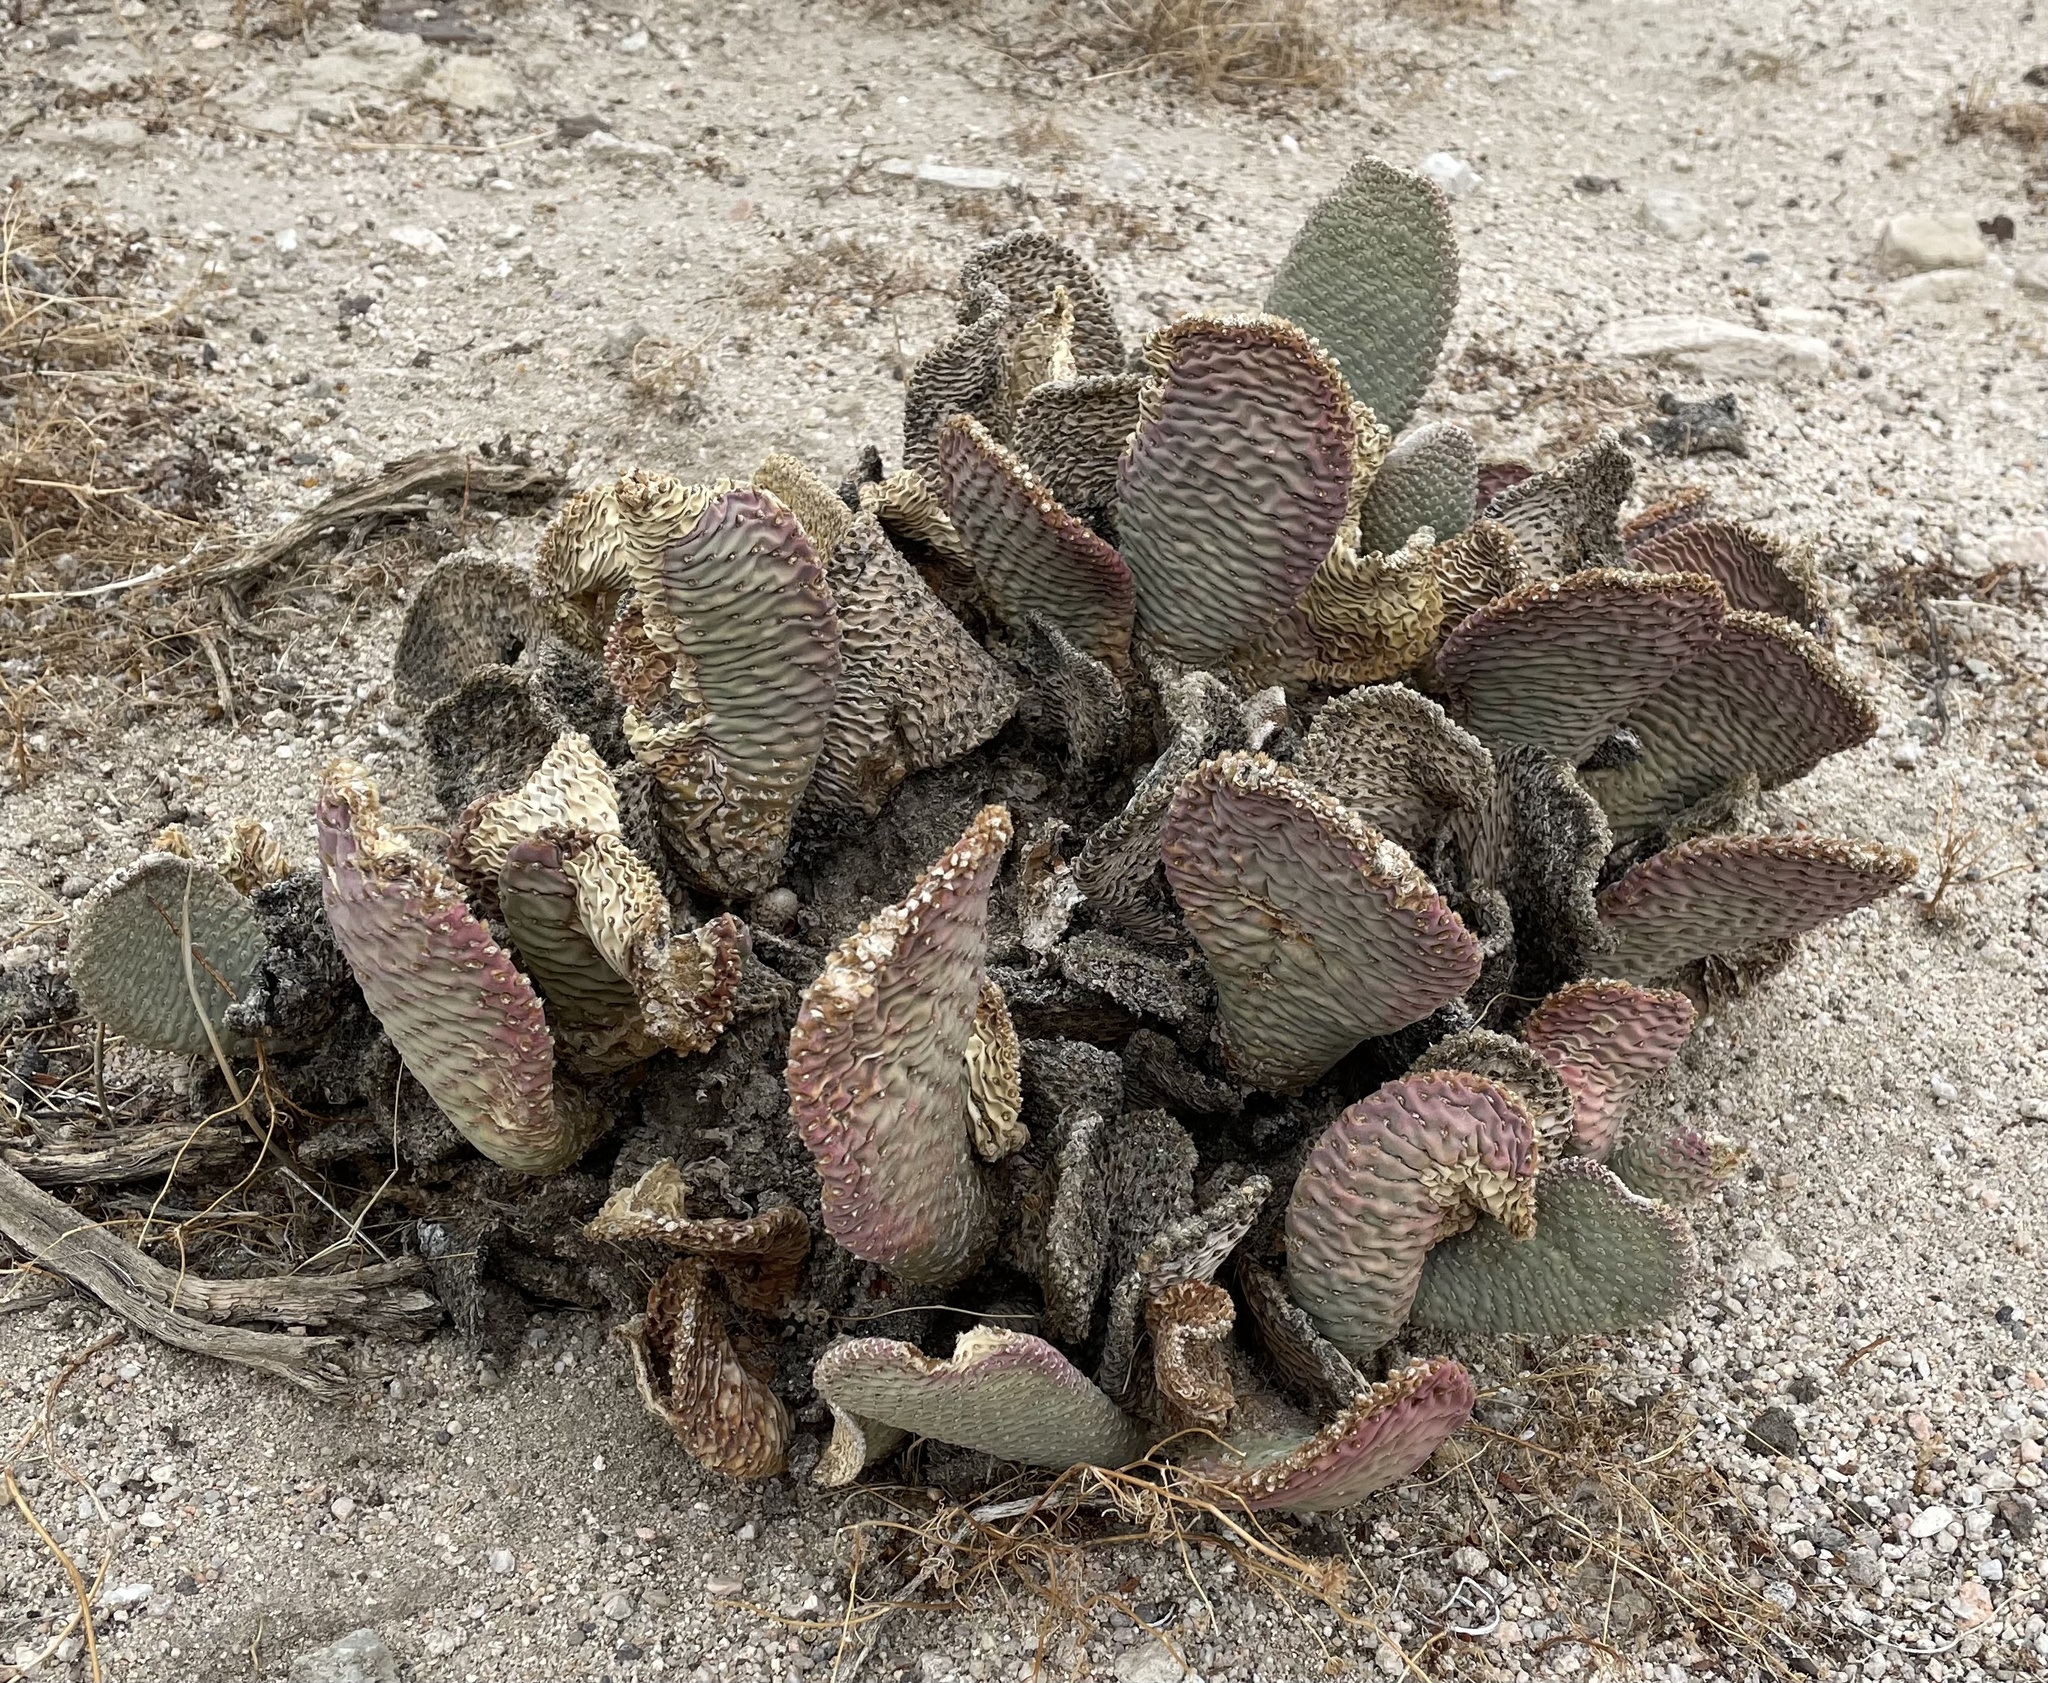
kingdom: Plantae
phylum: Tracheophyta
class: Magnoliopsida
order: Caryophyllales
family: Cactaceae
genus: Opuntia
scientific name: Opuntia basilaris
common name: Beavertail prickly-pear
